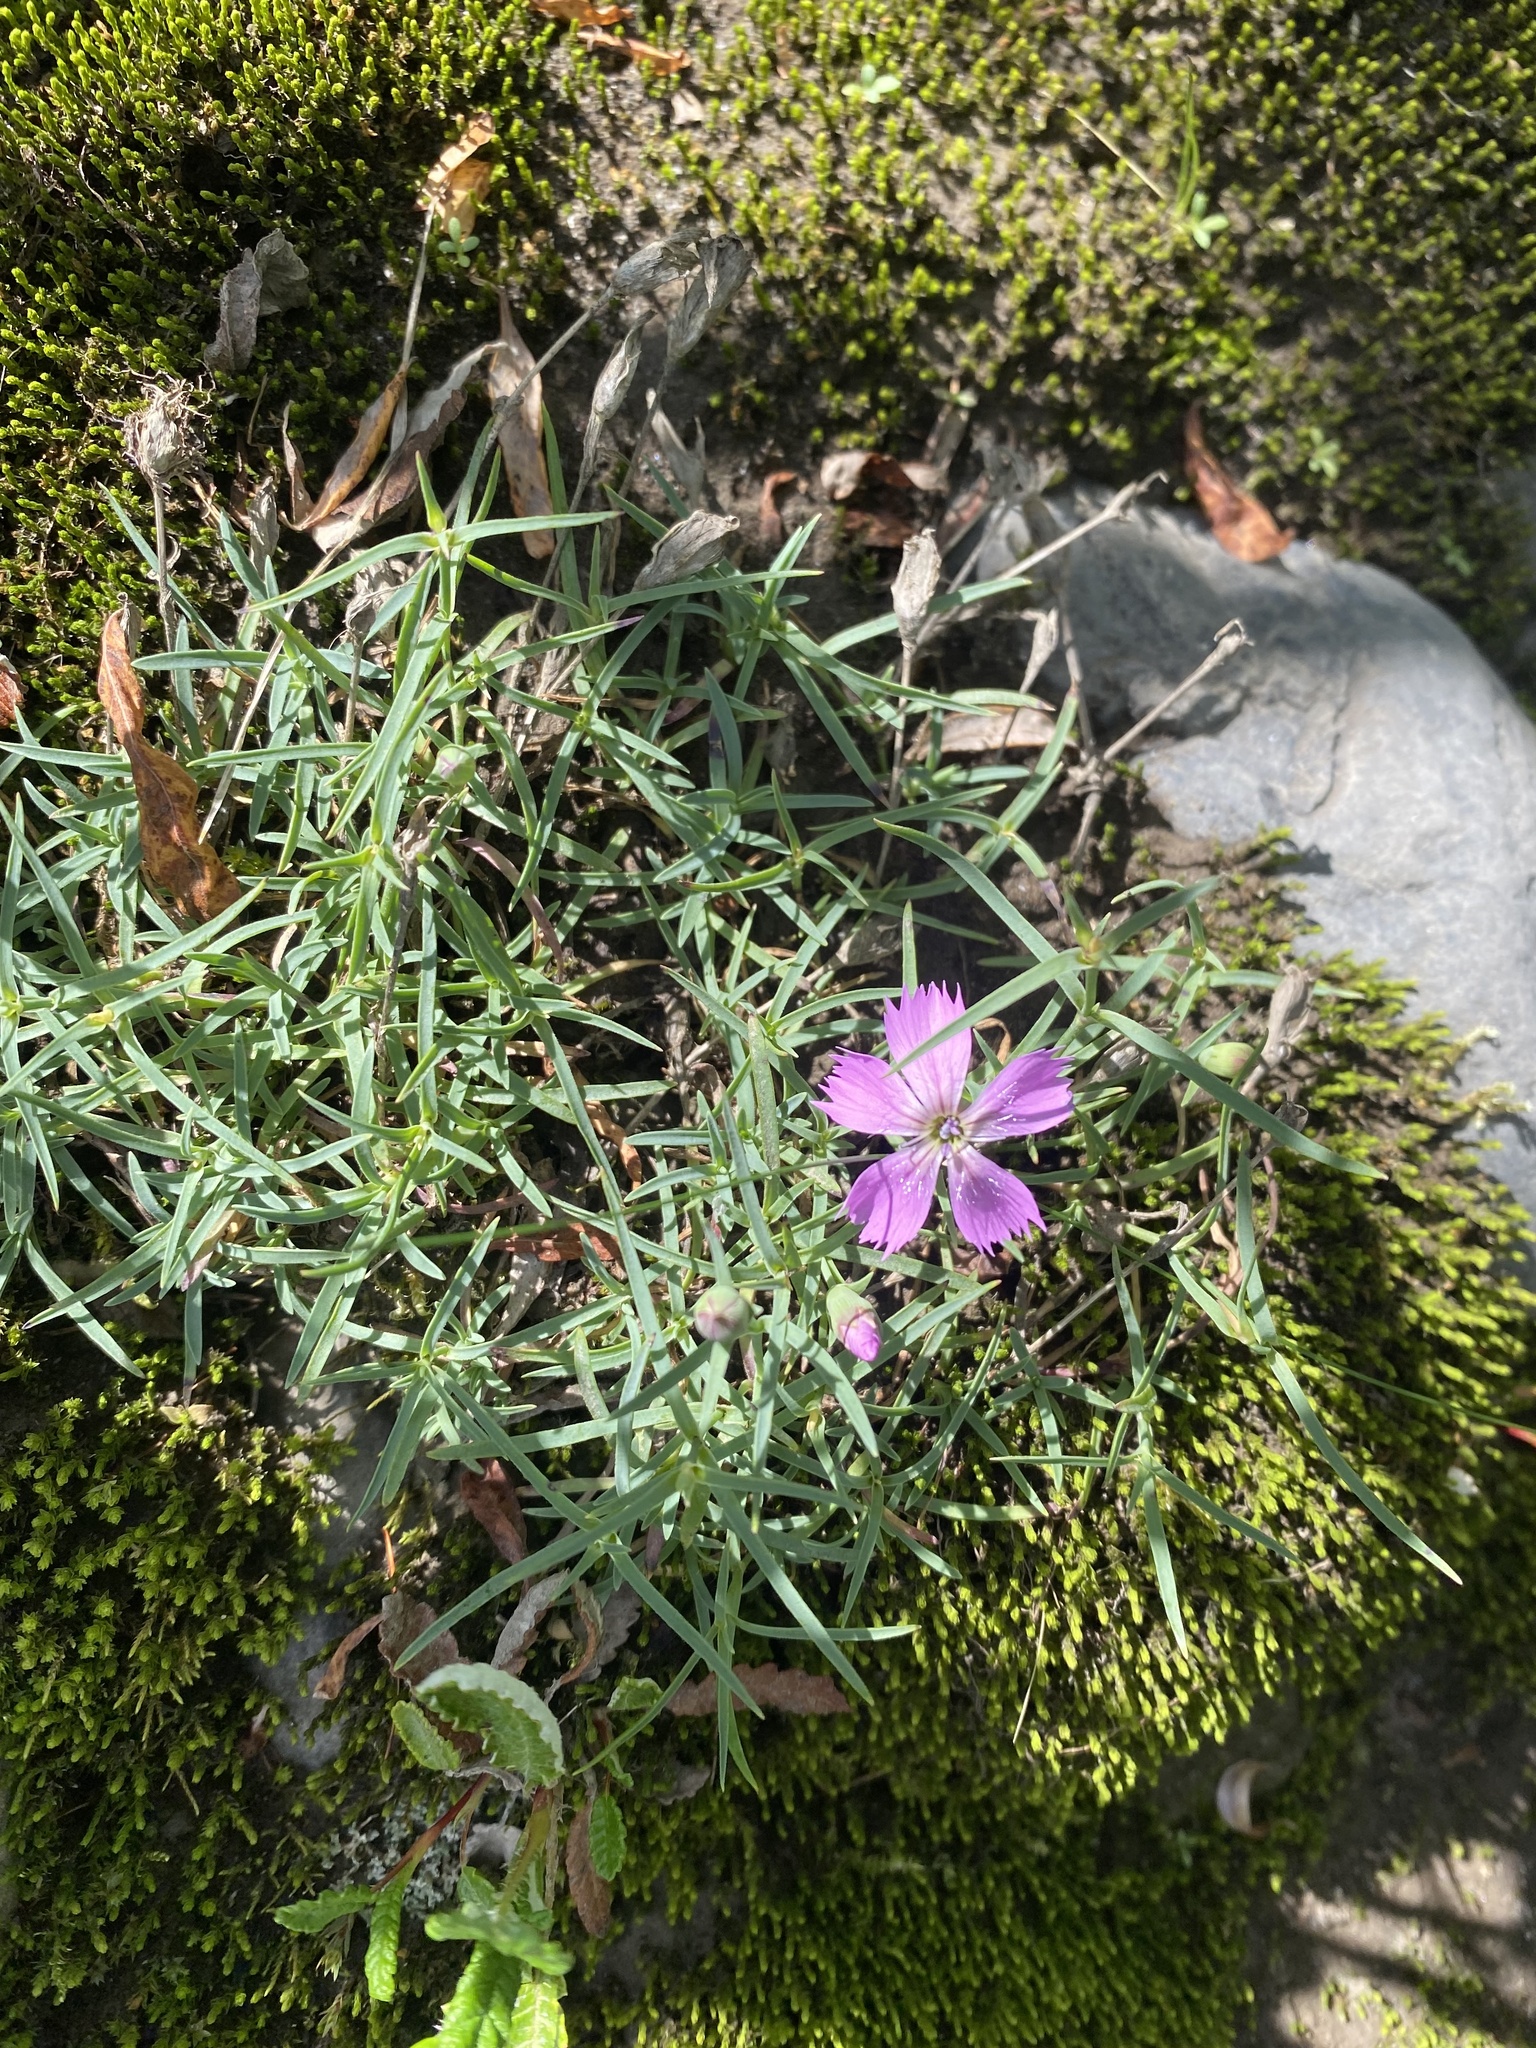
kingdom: Plantae
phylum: Tracheophyta
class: Magnoliopsida
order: Caryophyllales
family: Caryophyllaceae
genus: Dianthus
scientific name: Dianthus repens
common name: Northern pink
